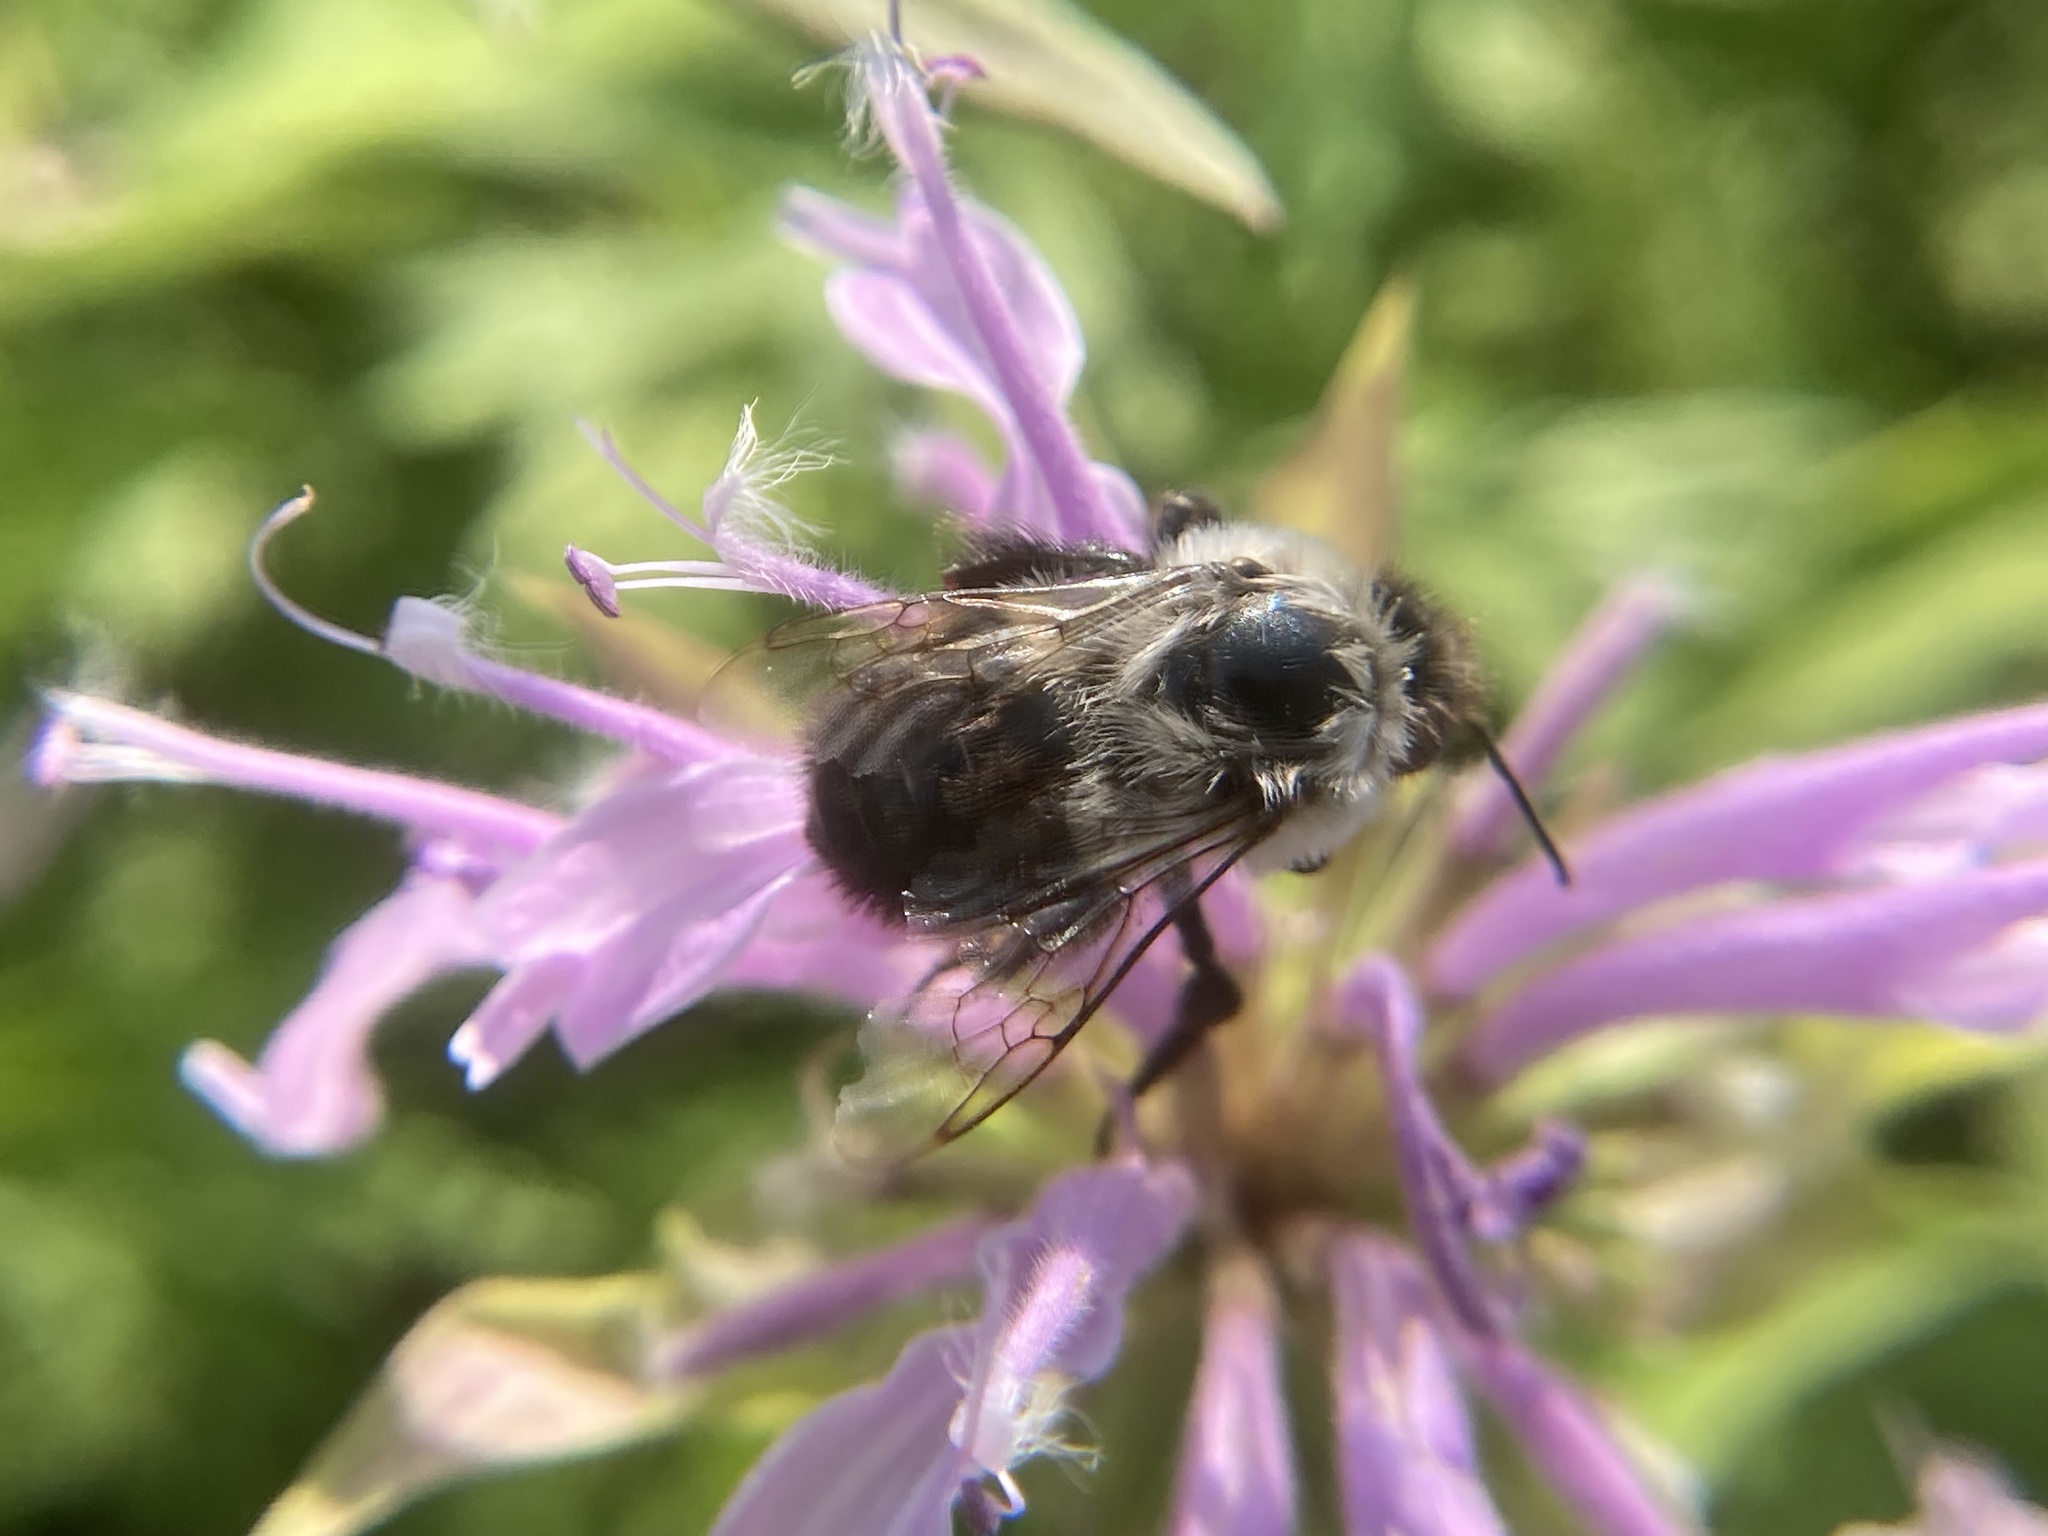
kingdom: Animalia
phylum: Arthropoda
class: Insecta
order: Hymenoptera
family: Apidae
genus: Bombus
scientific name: Bombus impatiens
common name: Common eastern bumble bee
